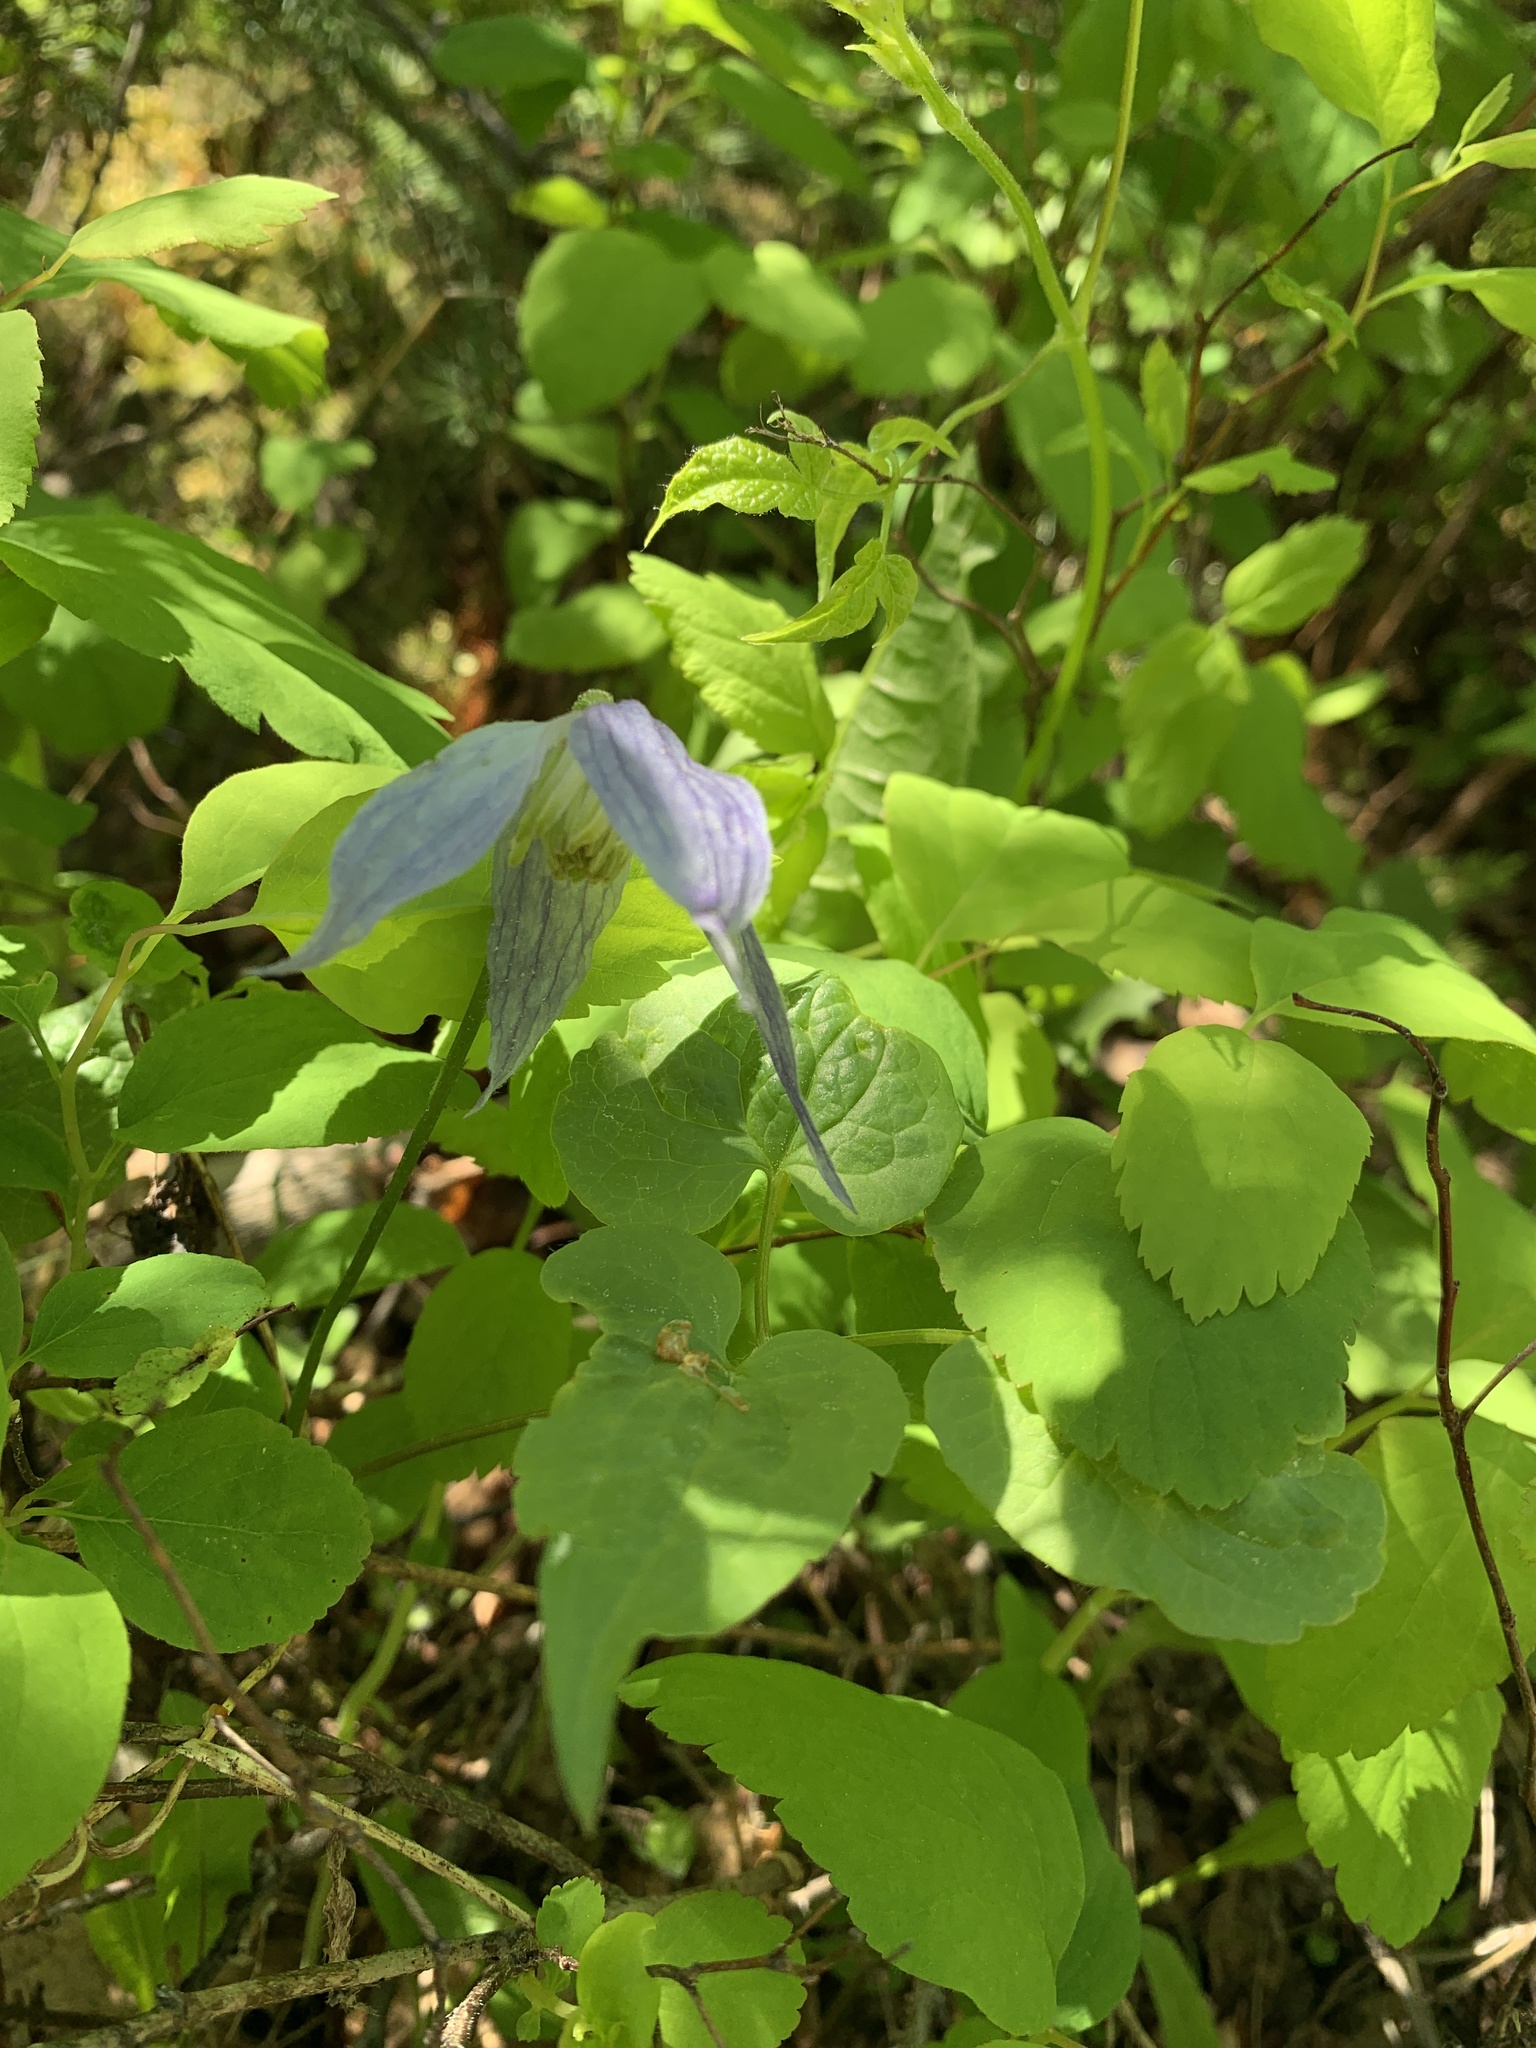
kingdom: Plantae
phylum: Tracheophyta
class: Magnoliopsida
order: Ranunculales
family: Ranunculaceae
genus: Clematis
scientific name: Clematis occidentalis
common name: Purple clematis
